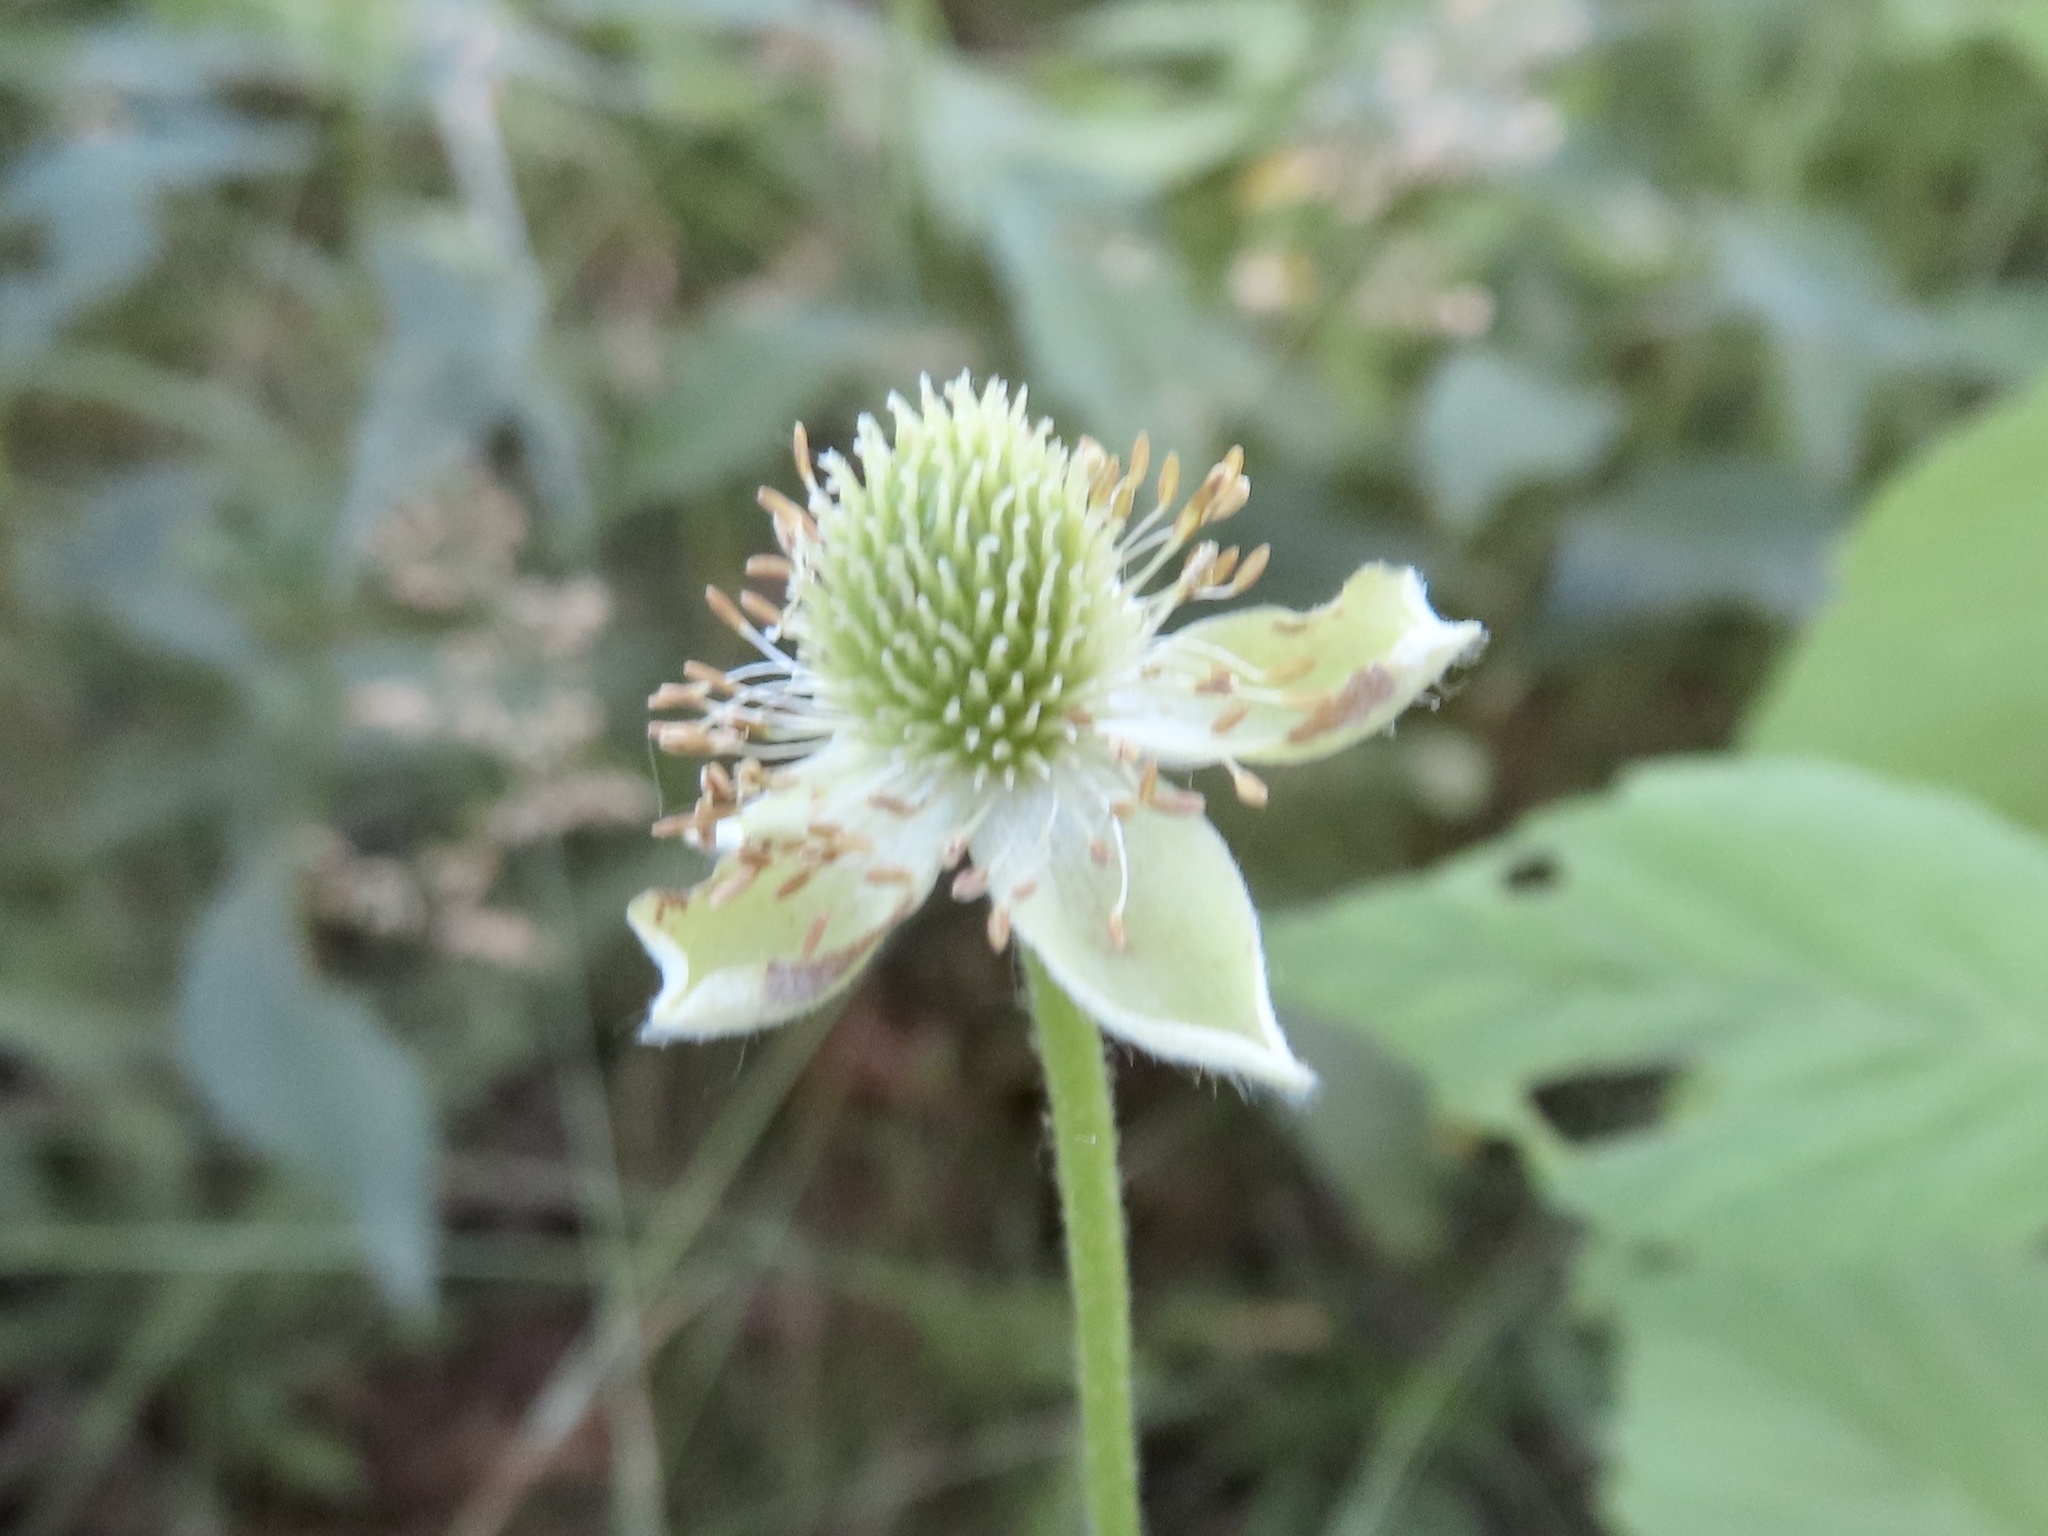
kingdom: Plantae
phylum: Tracheophyta
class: Magnoliopsida
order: Ranunculales
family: Ranunculaceae
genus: Anemone
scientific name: Anemone virginiana
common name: Tall anemone
